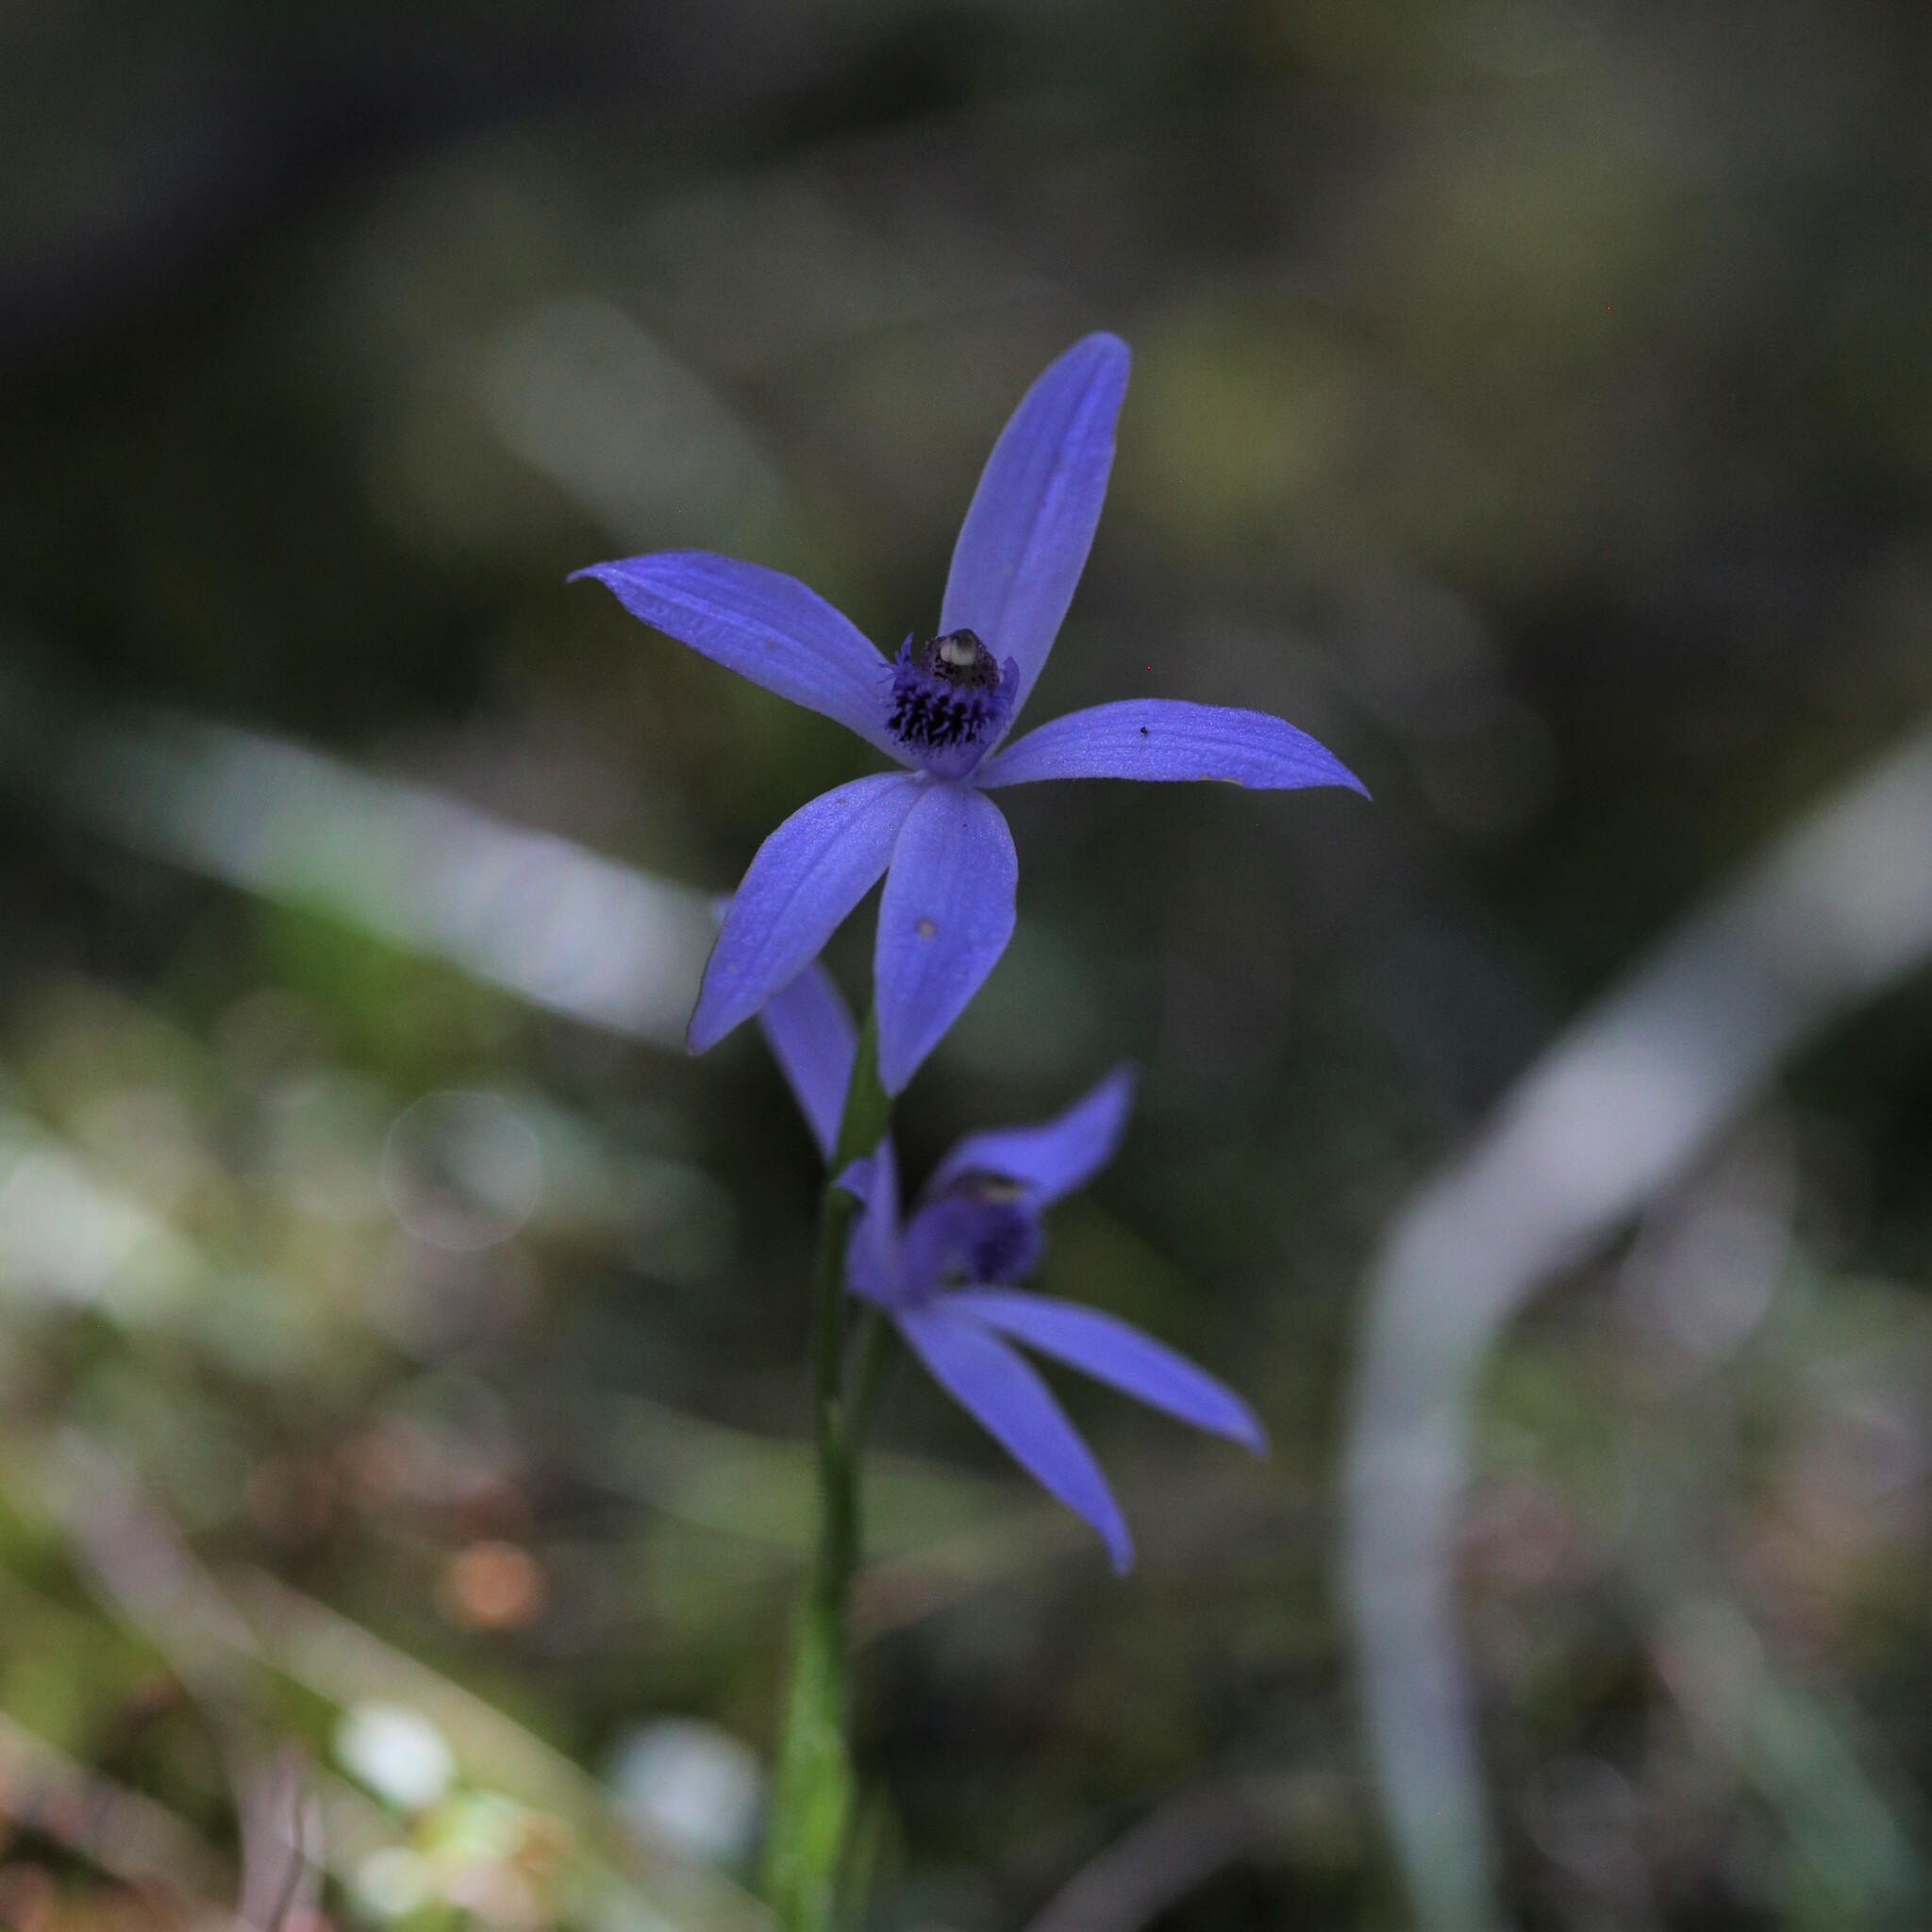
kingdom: Plantae
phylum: Tracheophyta
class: Liliopsida
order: Asparagales
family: Orchidaceae
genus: Pheladenia
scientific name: Pheladenia deformis
